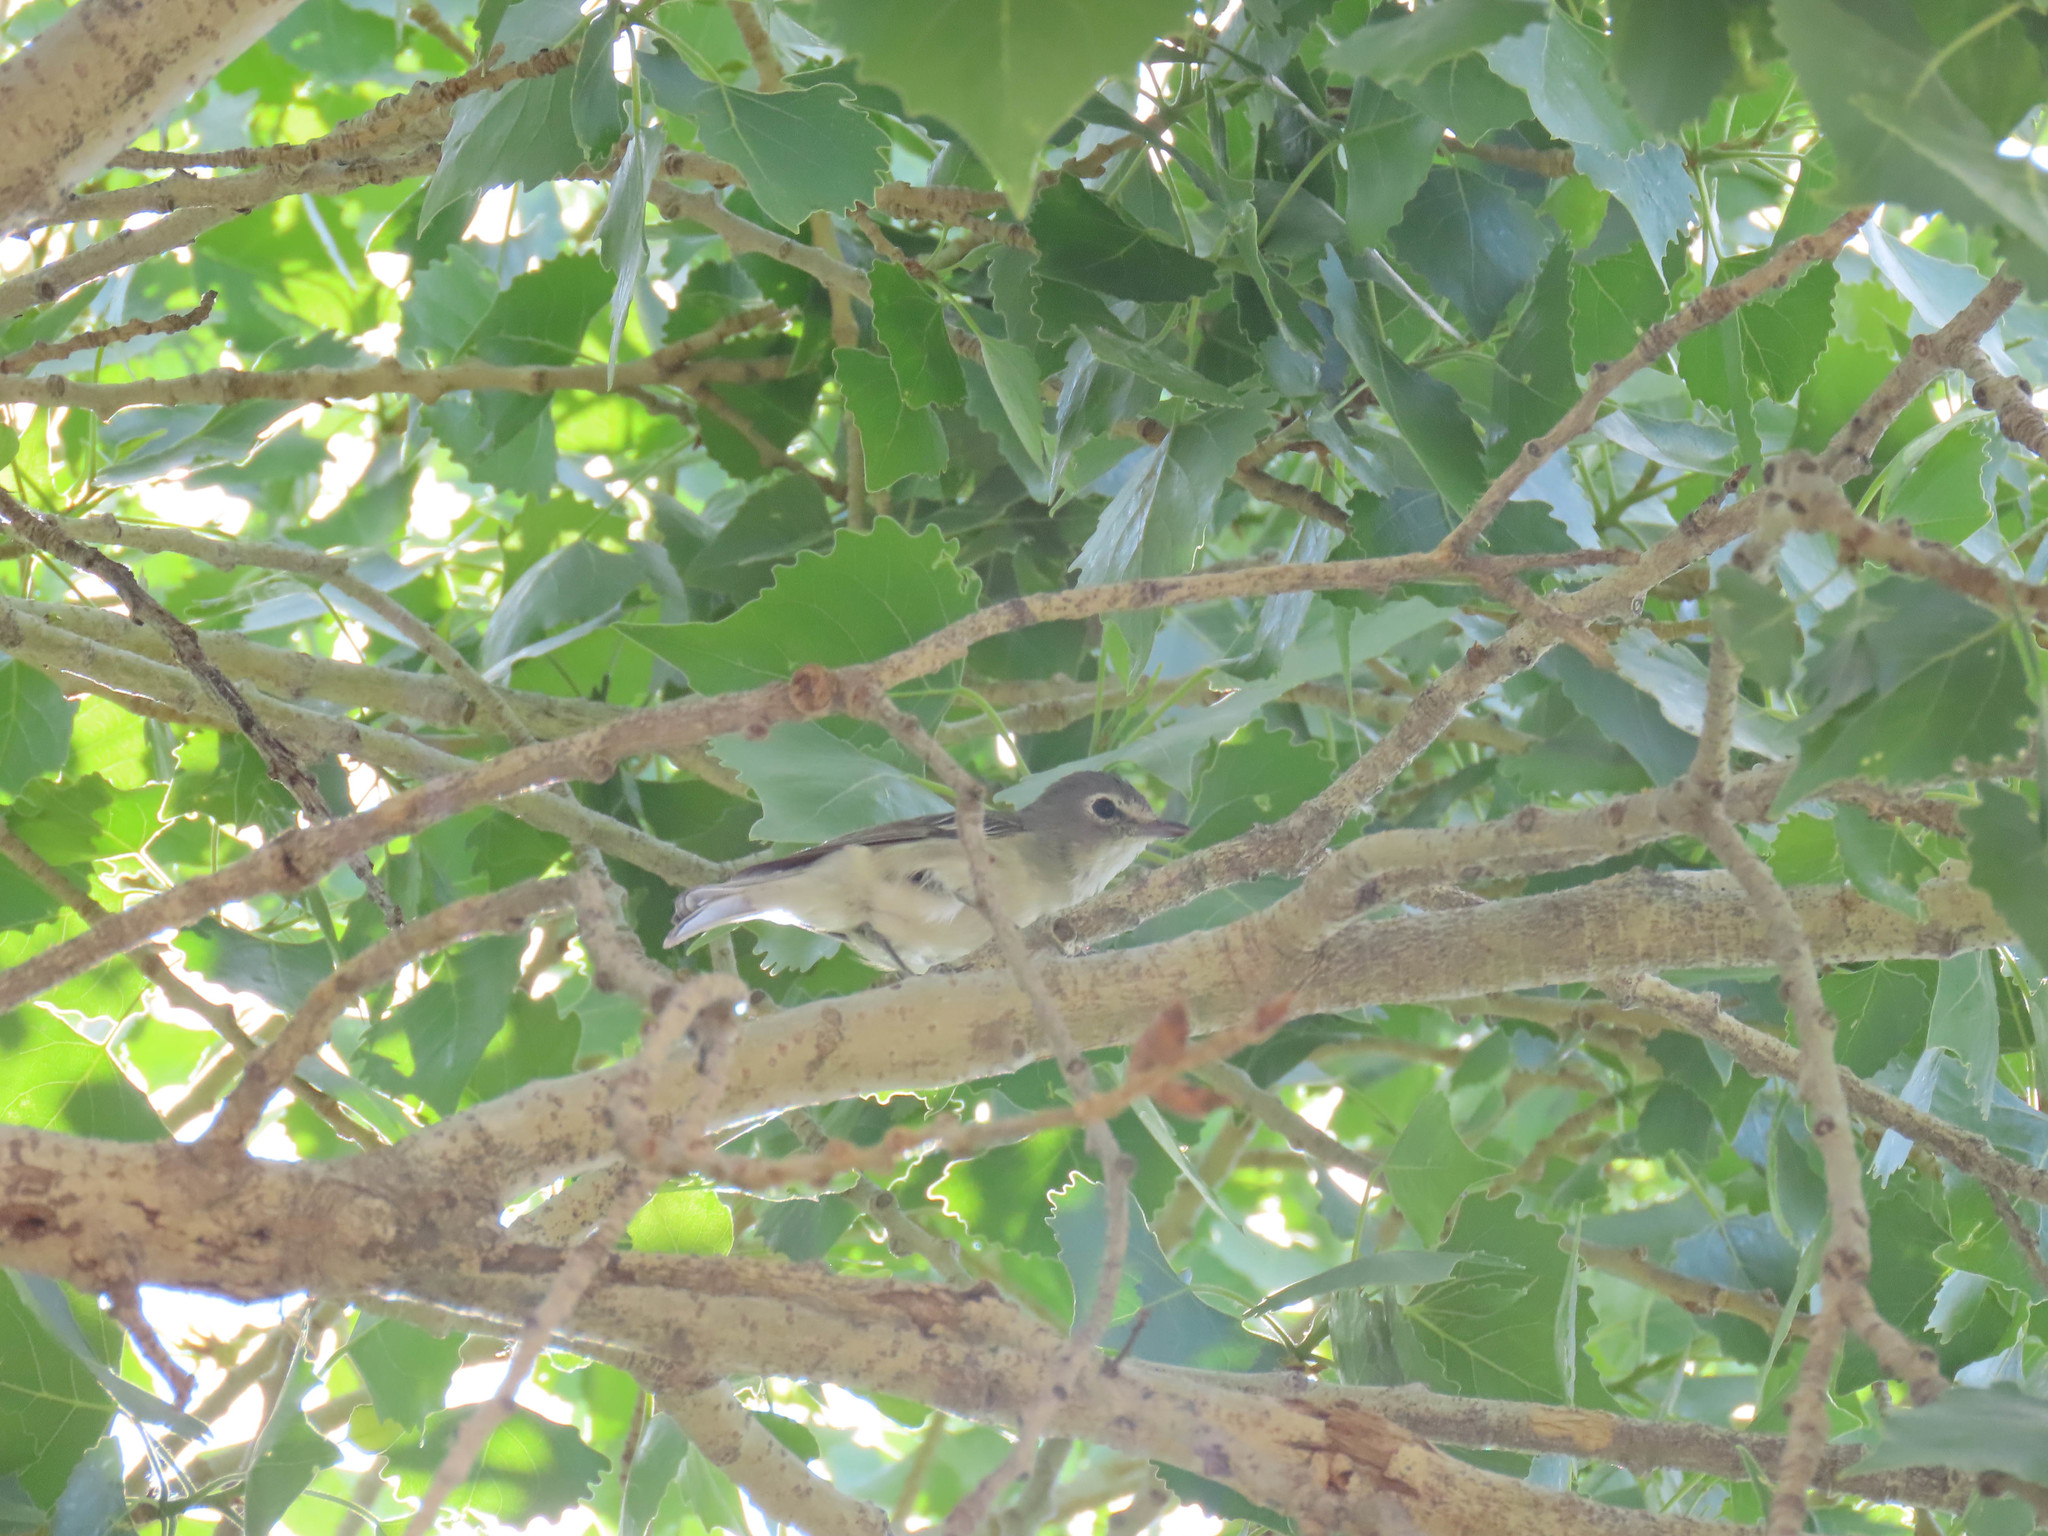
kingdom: Animalia
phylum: Chordata
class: Aves
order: Passeriformes
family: Vireonidae
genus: Vireo
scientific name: Vireo plumbeus
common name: Plumbeous vireo
